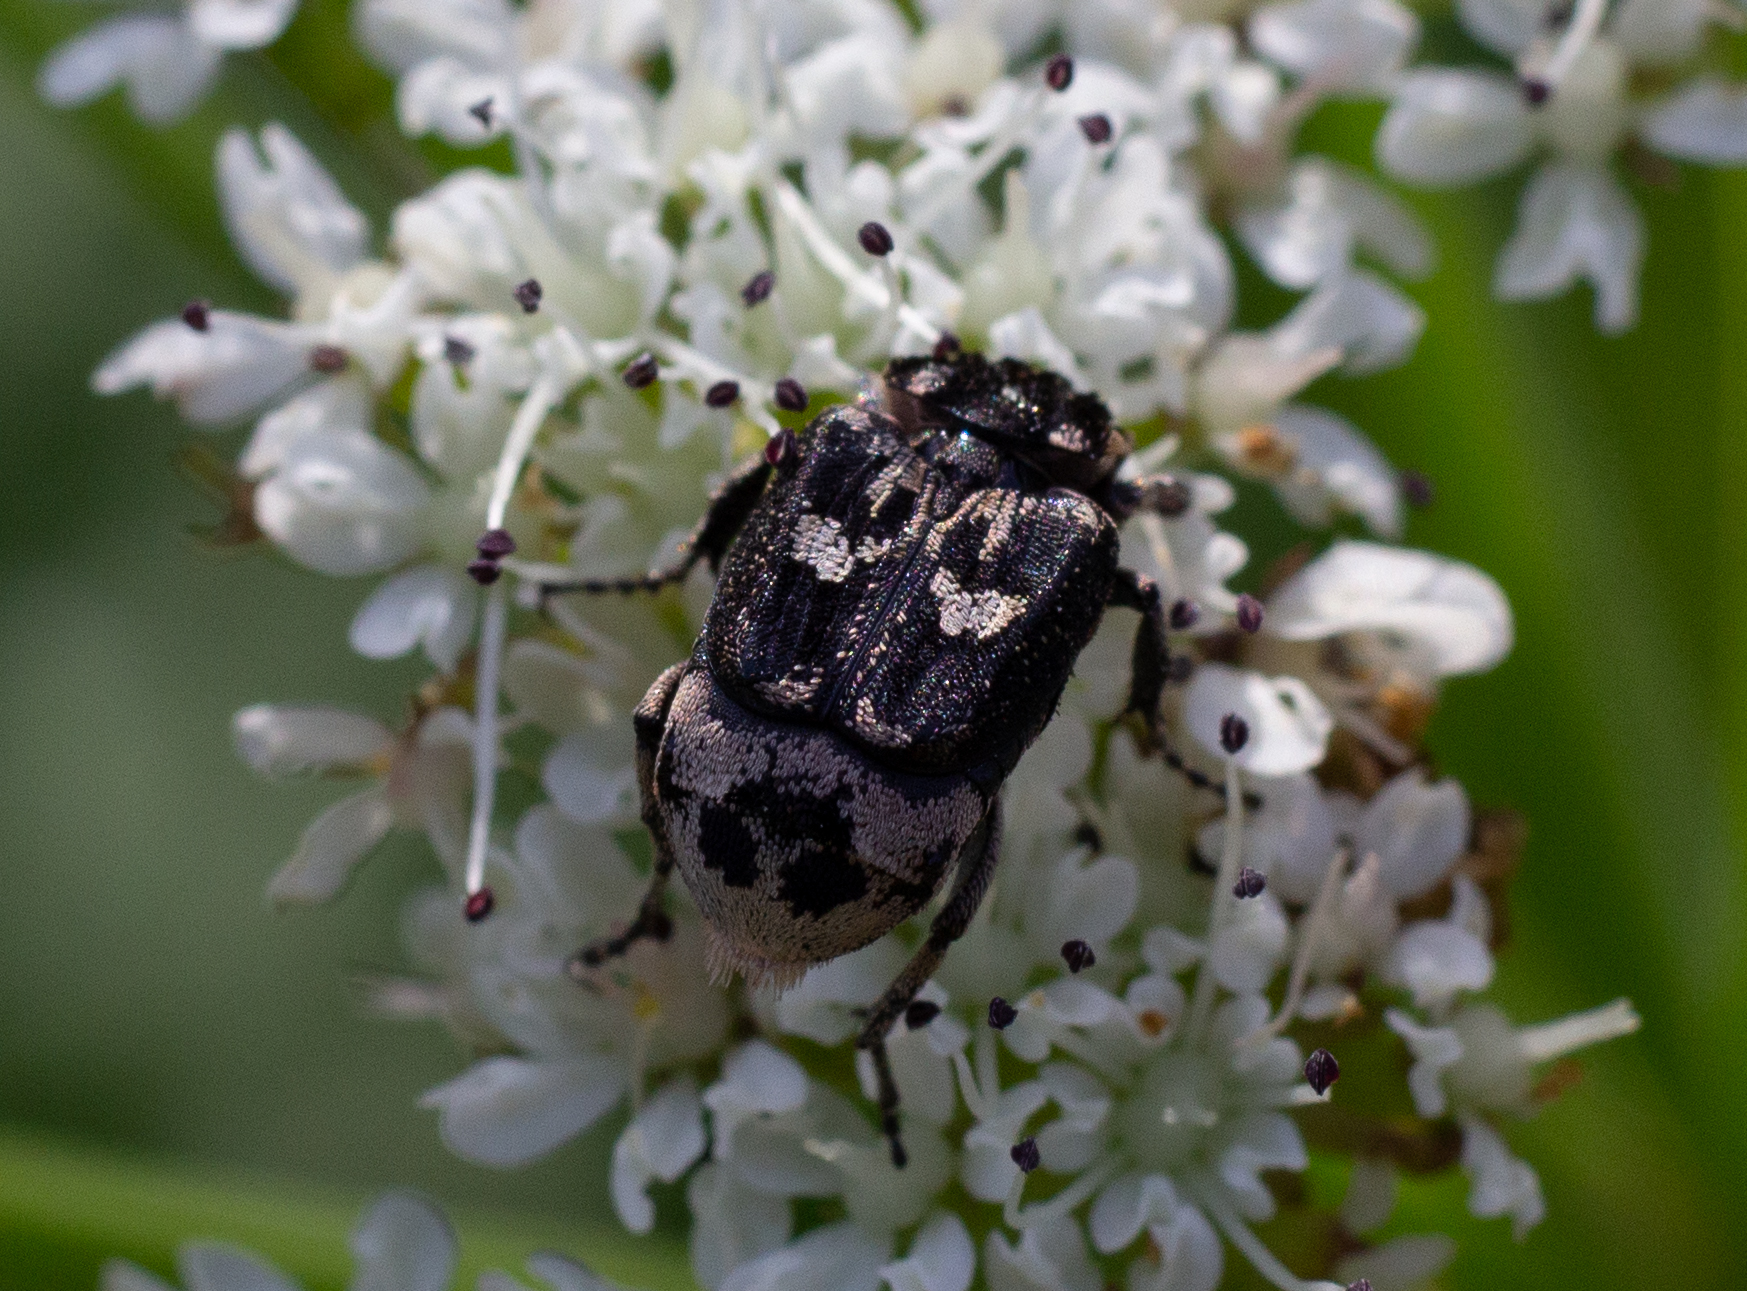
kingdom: Animalia
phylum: Arthropoda
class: Insecta
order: Coleoptera
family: Scarabaeidae
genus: Valgus
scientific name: Valgus hemipterus
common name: Bug flower chafer
